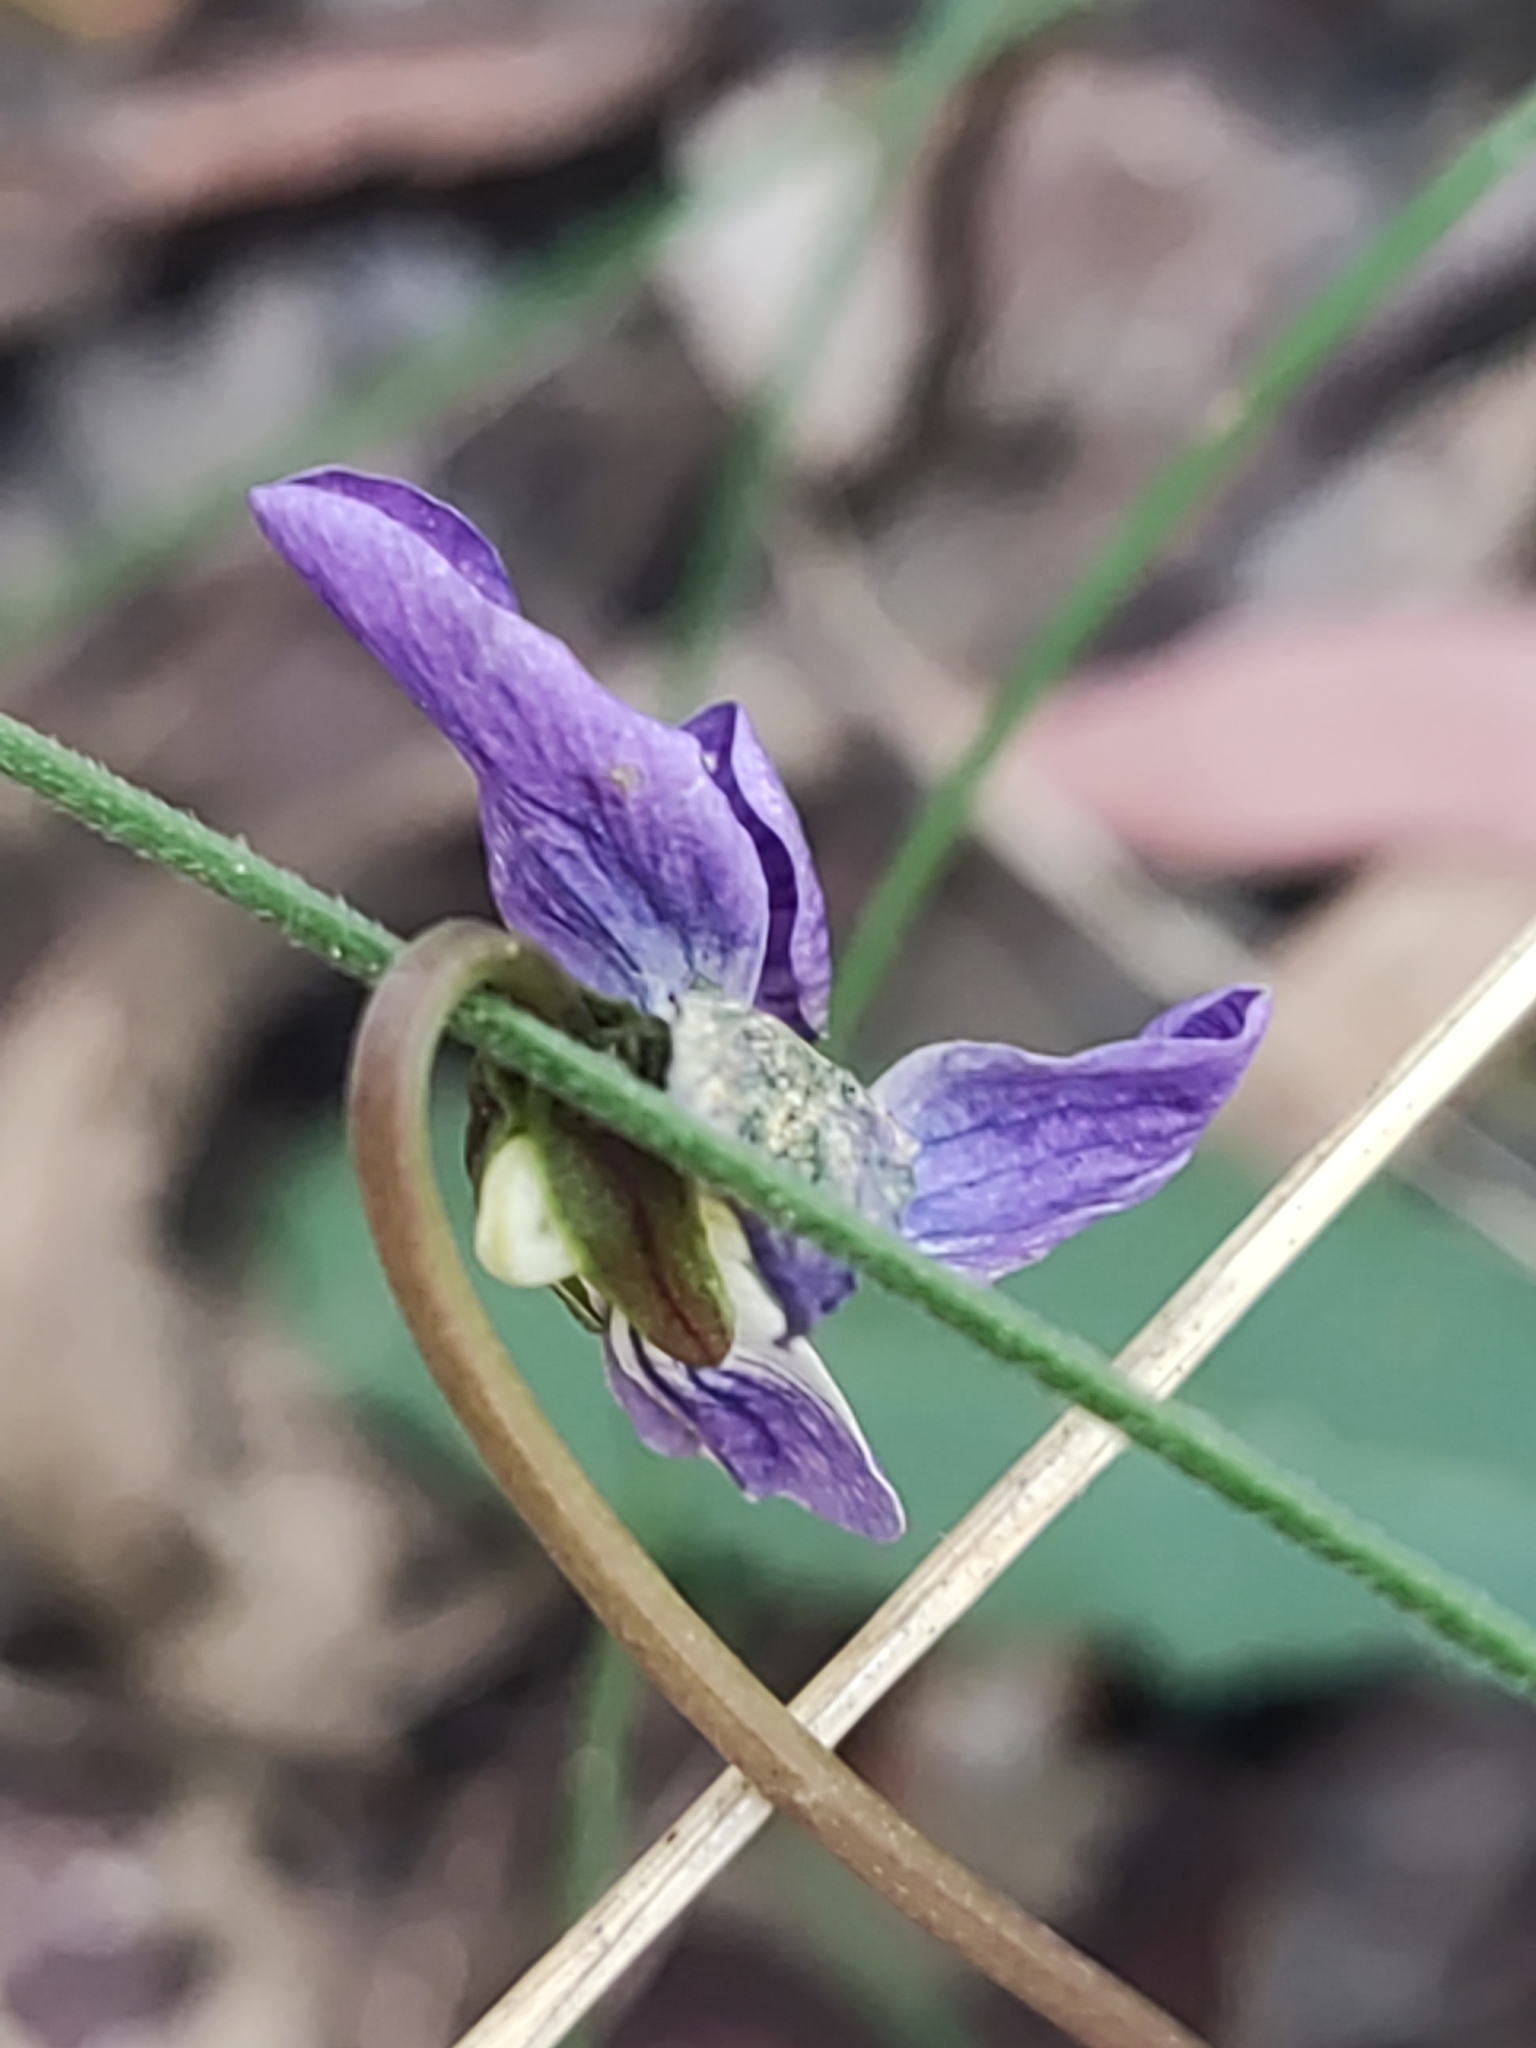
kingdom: Plantae
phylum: Tracheophyta
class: Magnoliopsida
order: Malpighiales
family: Violaceae
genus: Viola
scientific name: Viola betonicifolia
